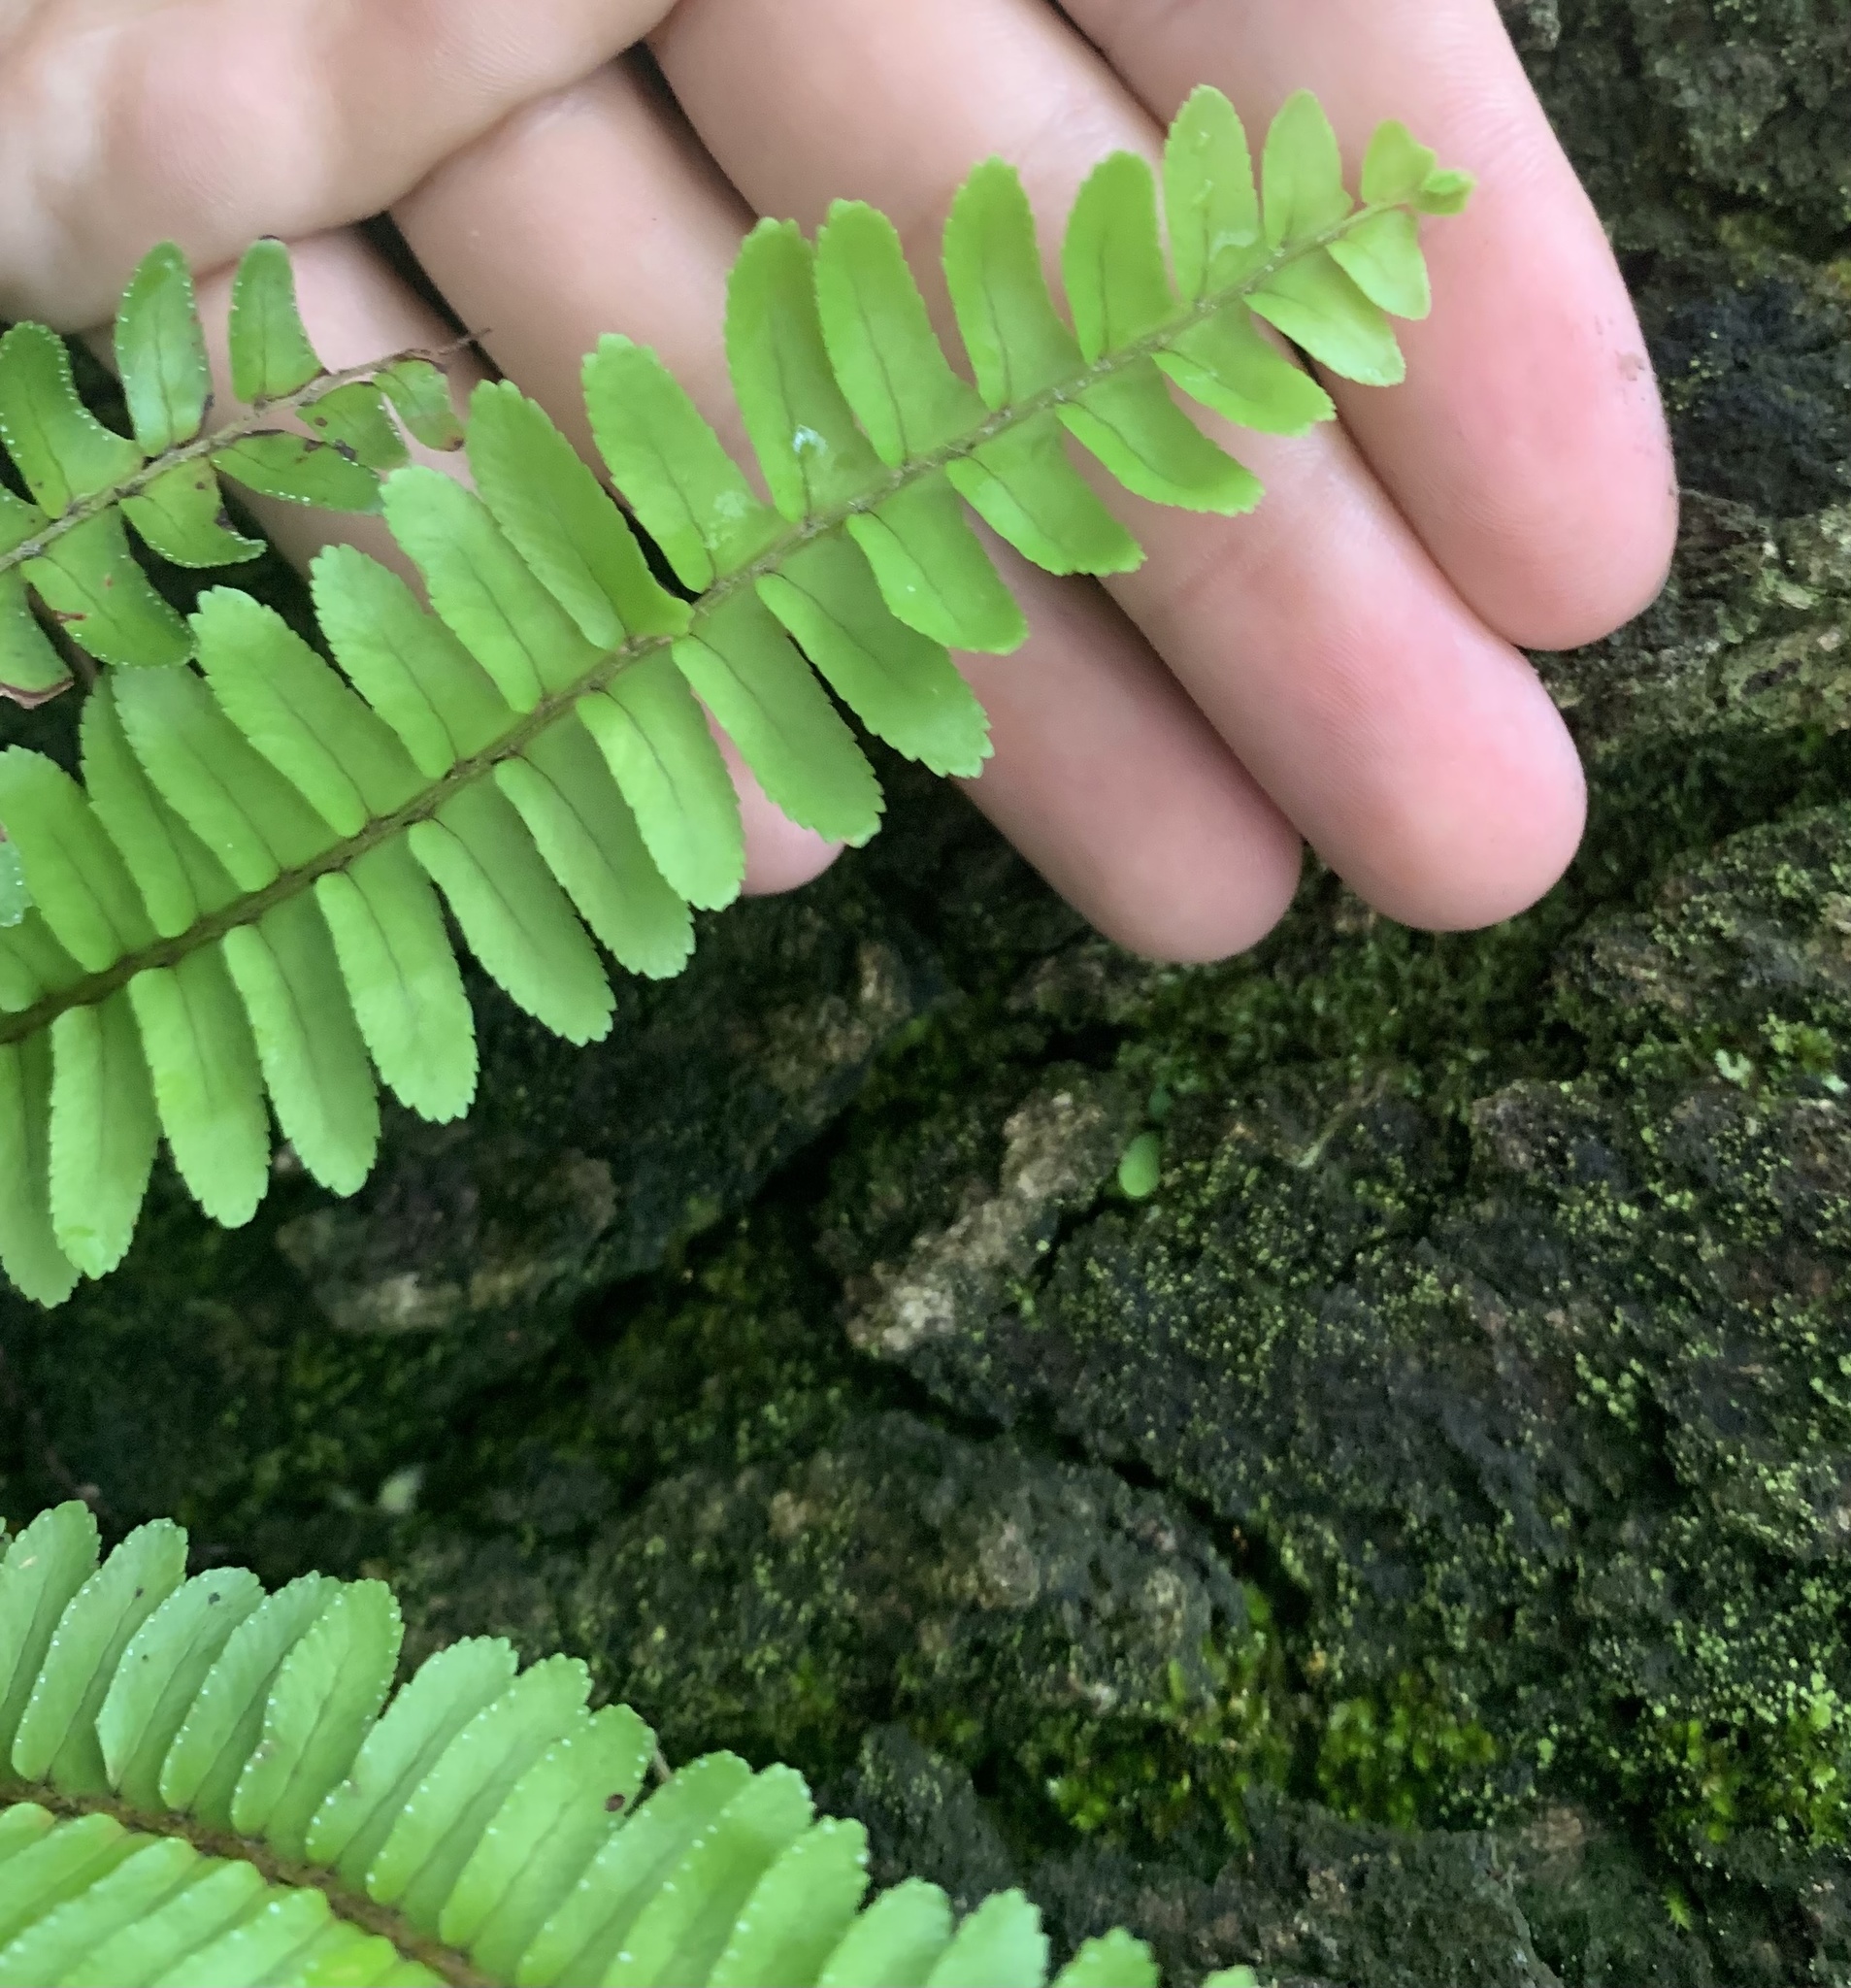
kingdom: Plantae
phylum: Tracheophyta
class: Polypodiopsida
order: Polypodiales
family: Nephrolepidaceae
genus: Nephrolepis
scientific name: Nephrolepis cordifolia
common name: Narrow swordfern
